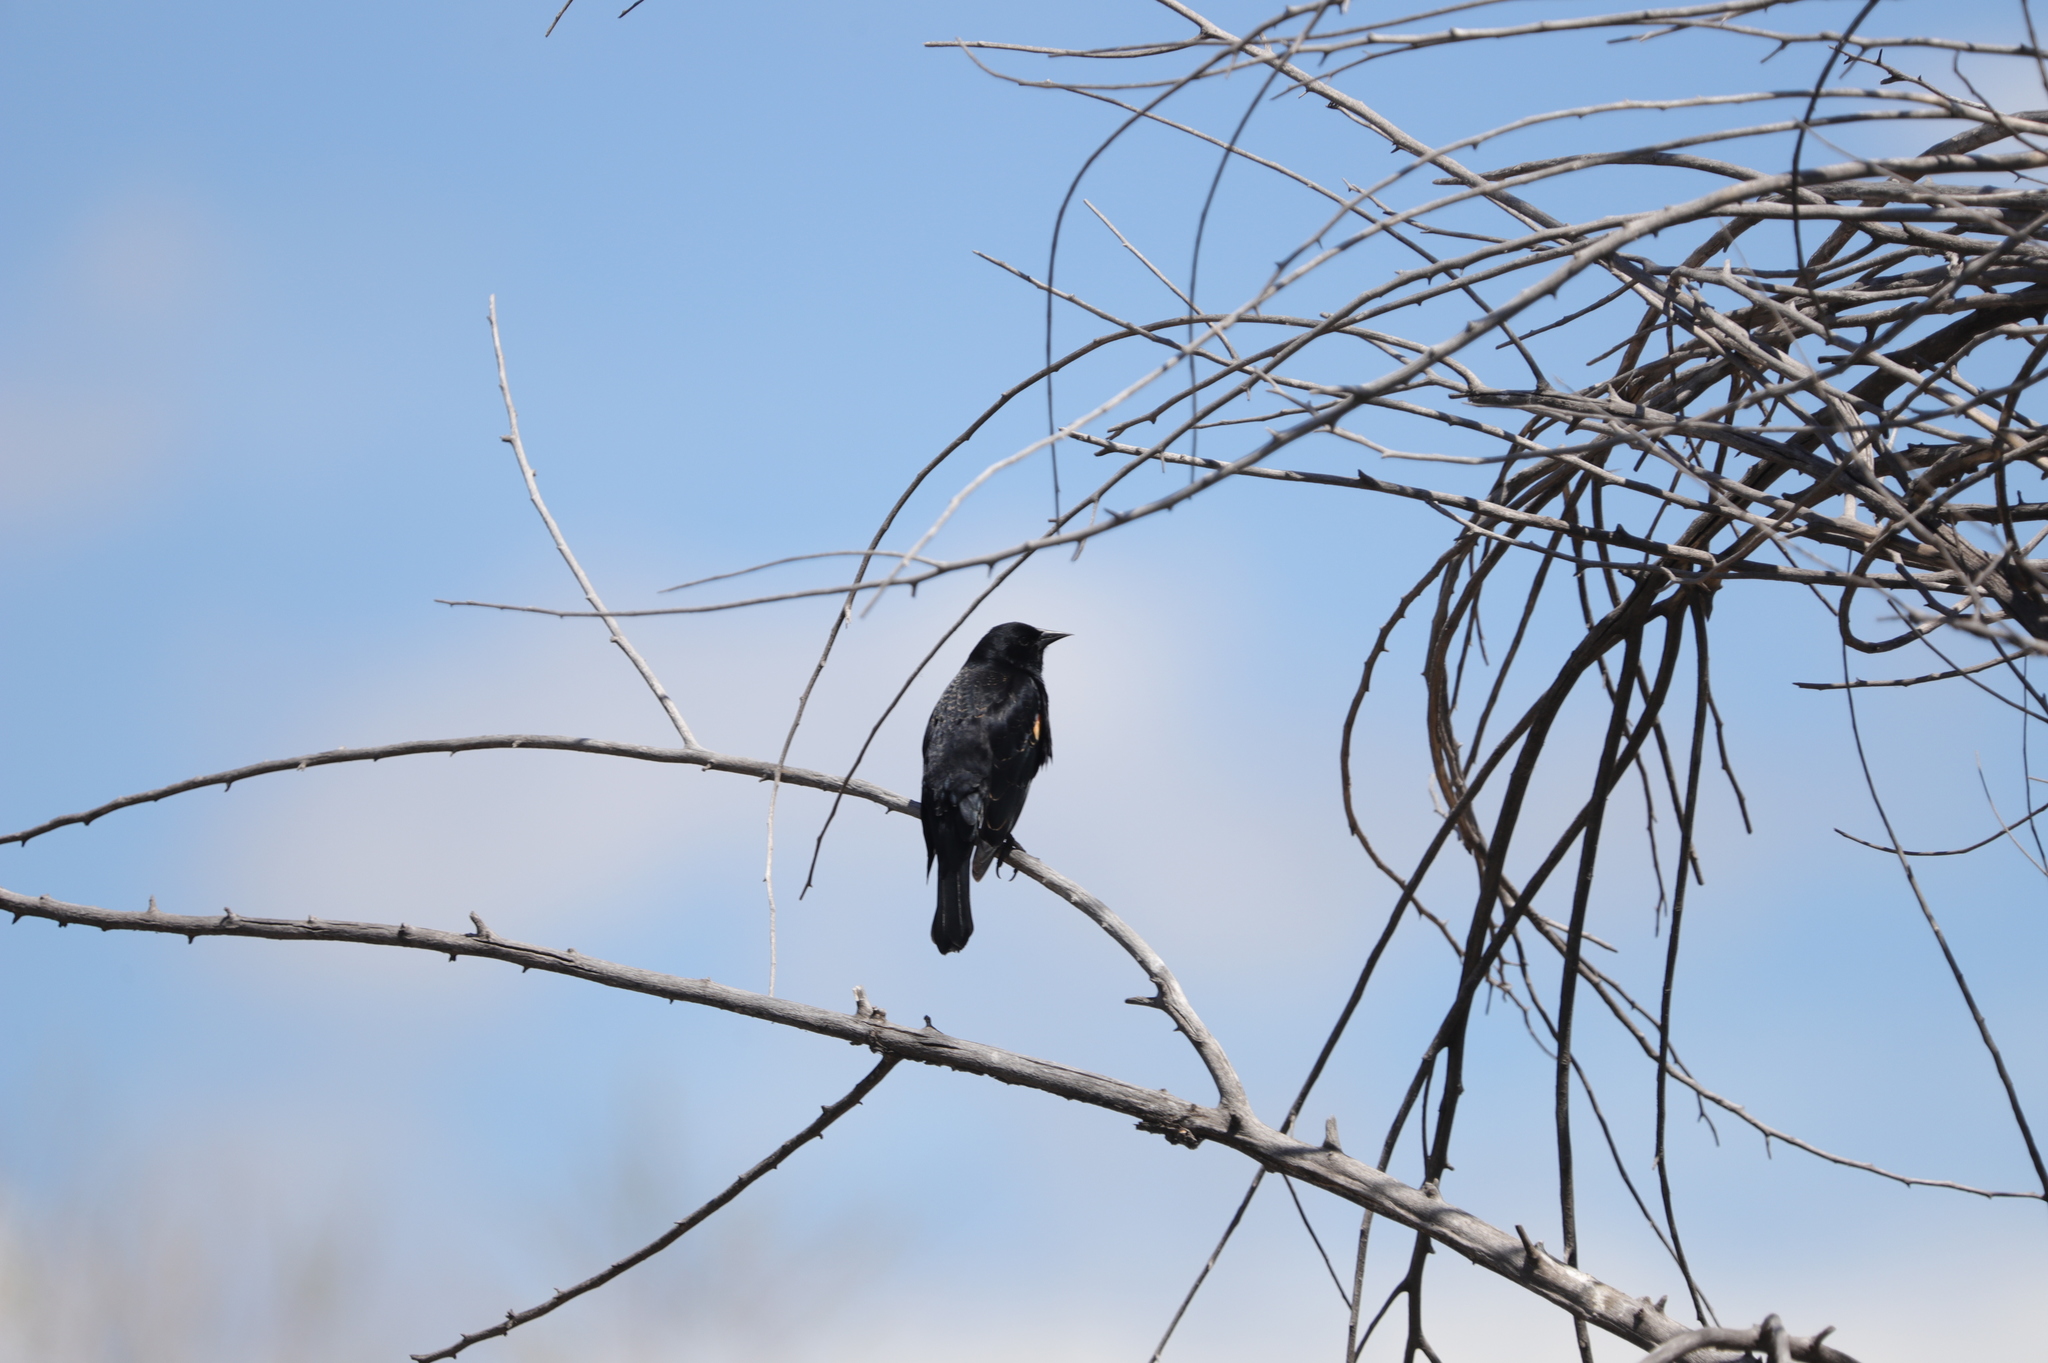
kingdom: Animalia
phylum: Chordata
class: Aves
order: Passeriformes
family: Icteridae
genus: Agelaius
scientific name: Agelaius phoeniceus
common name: Red-winged blackbird
